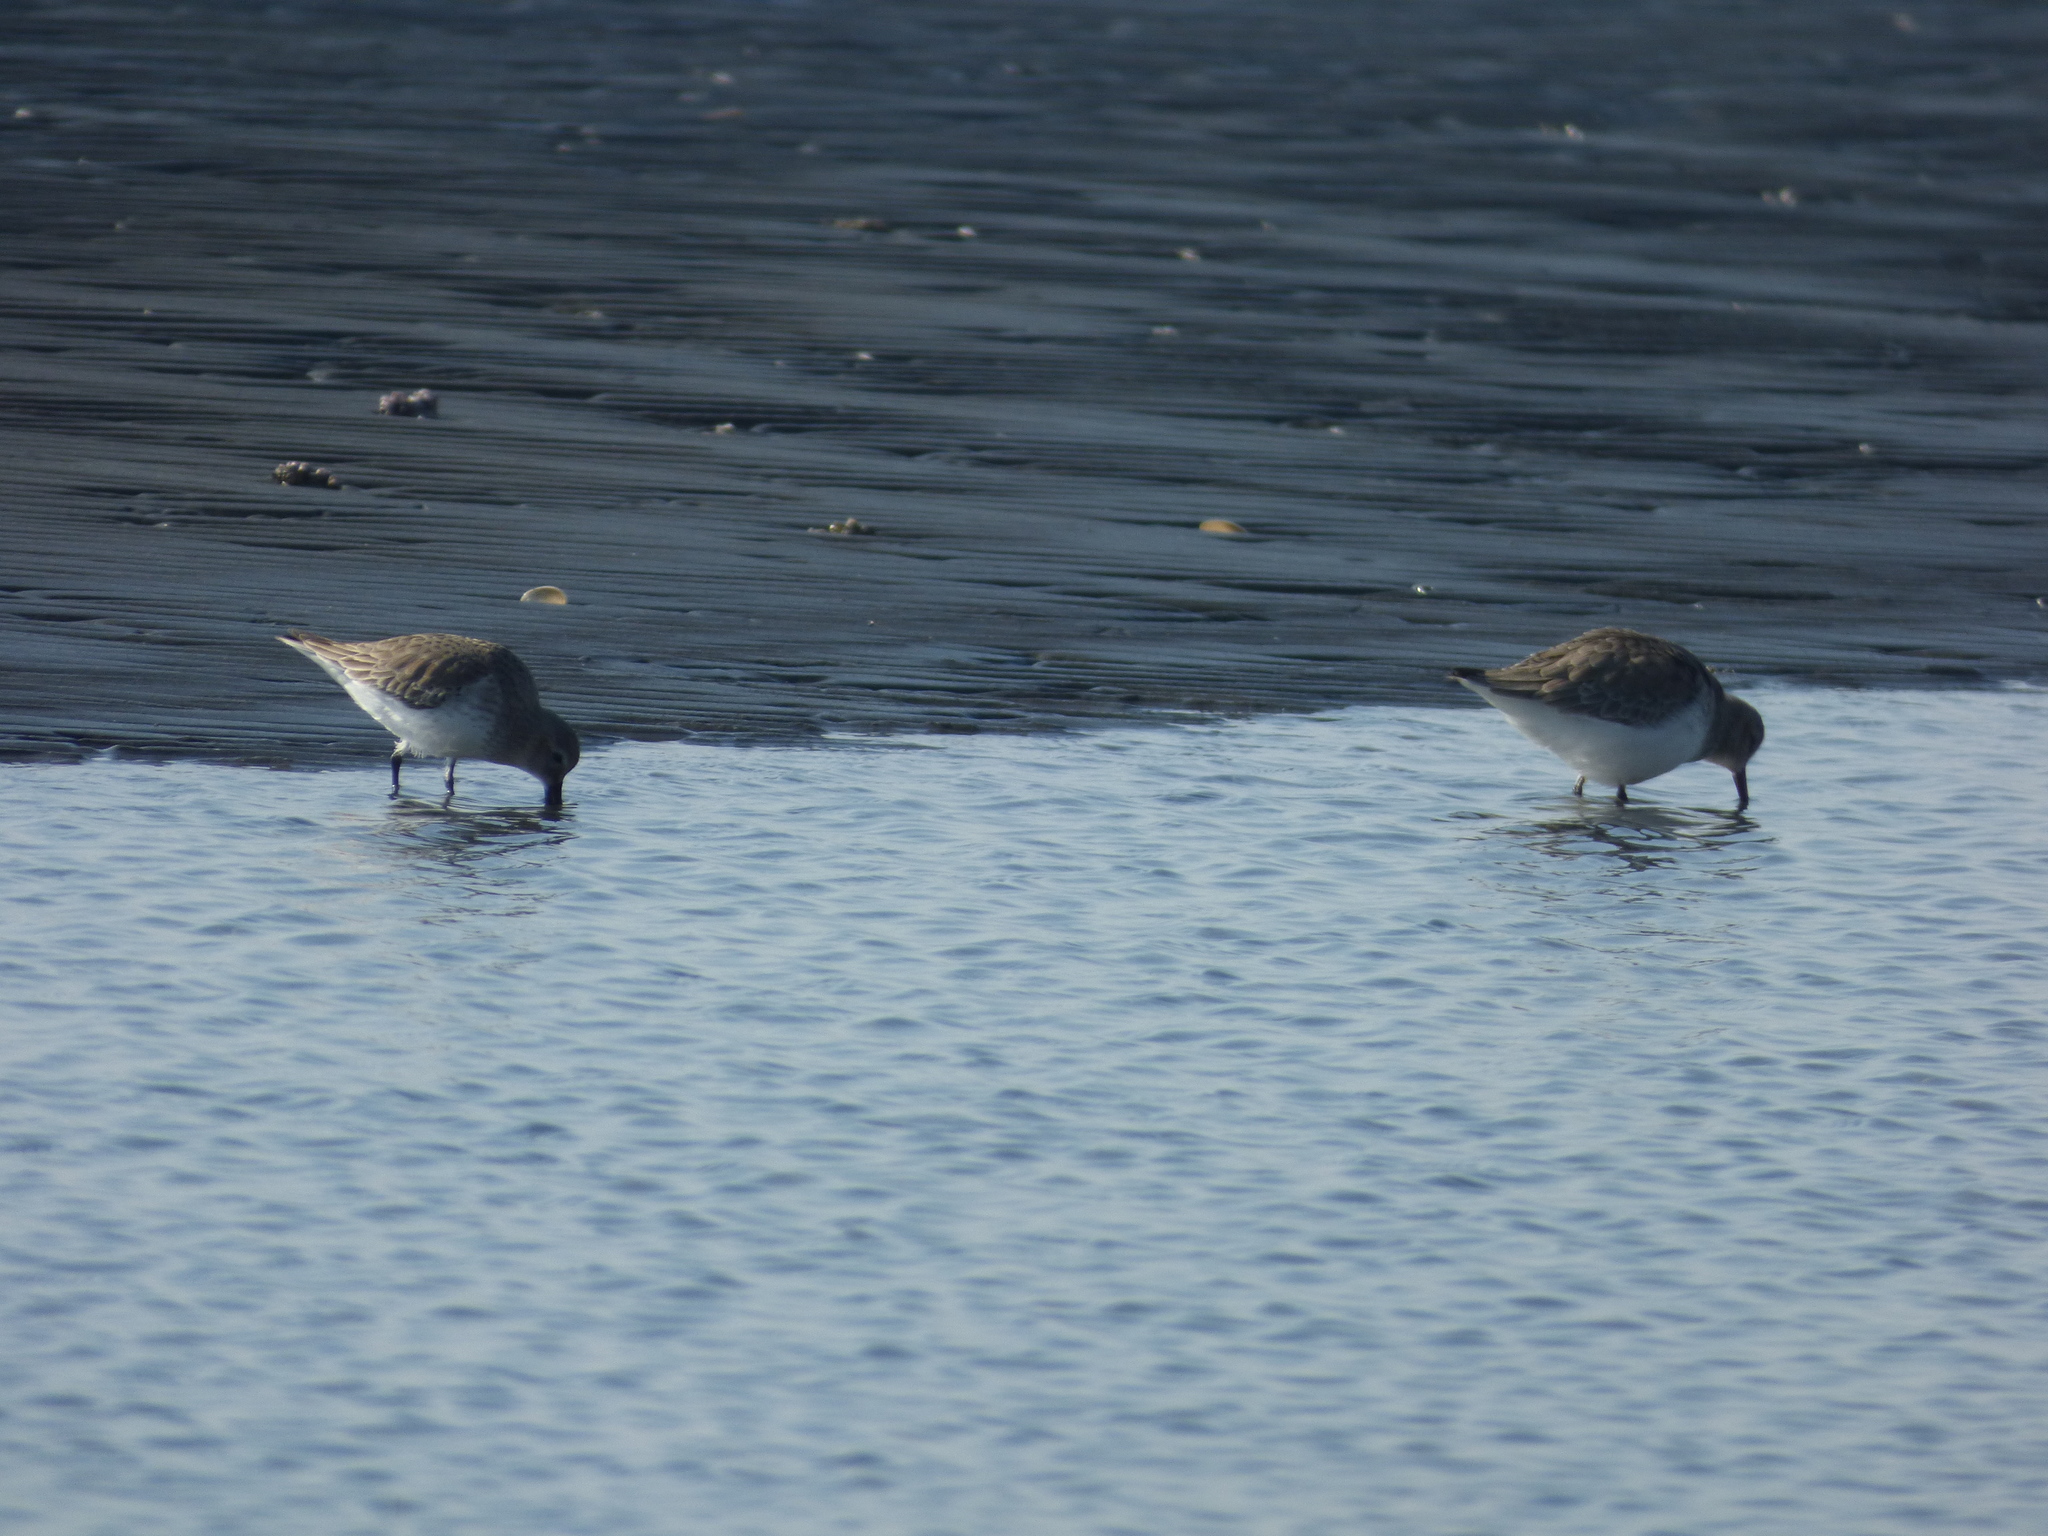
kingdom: Animalia
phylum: Chordata
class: Aves
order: Charadriiformes
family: Scolopacidae
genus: Calidris
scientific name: Calidris alpina
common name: Dunlin
